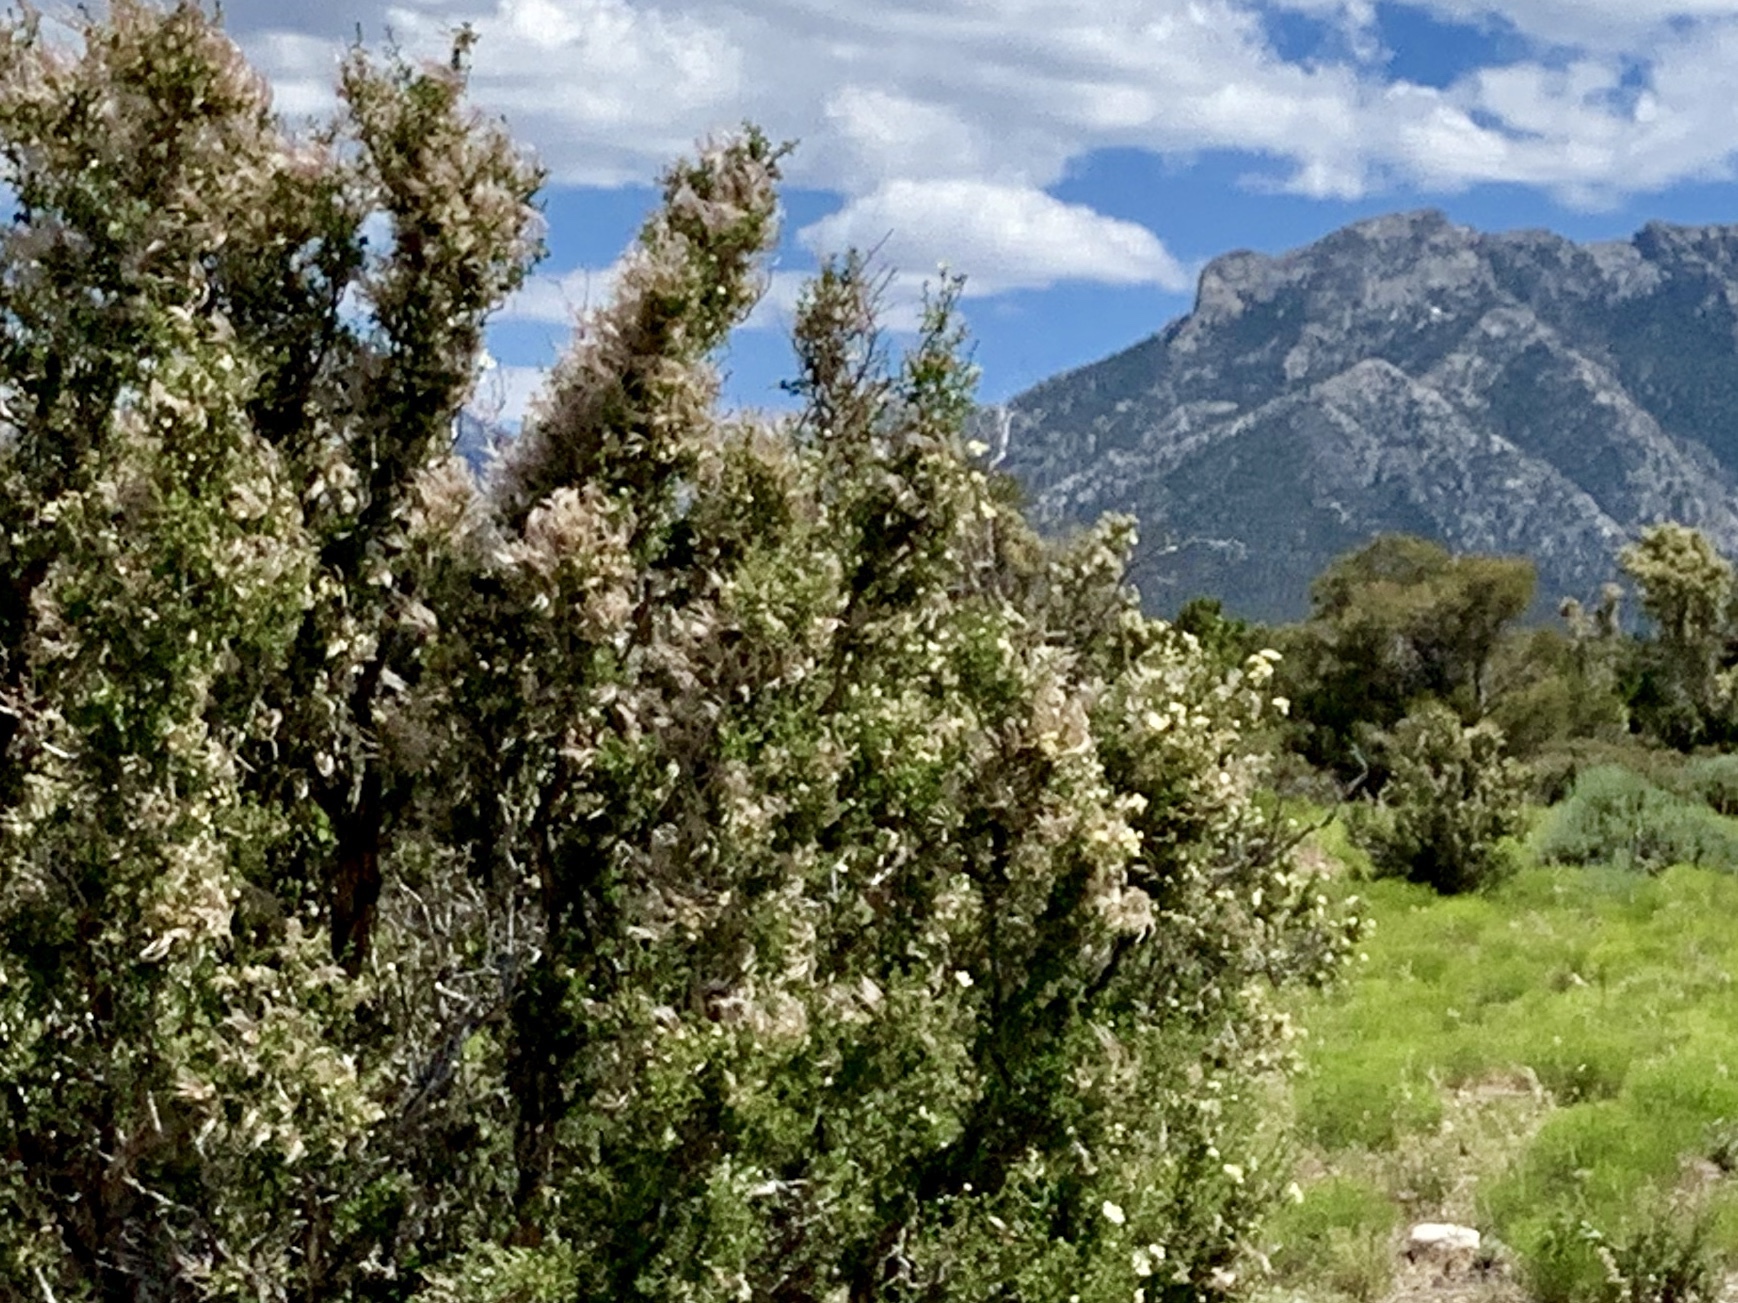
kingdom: Plantae
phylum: Tracheophyta
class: Magnoliopsida
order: Rosales
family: Rosaceae
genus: Purshia
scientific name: Purshia stansburiana
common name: Stansbury's cliffrose
